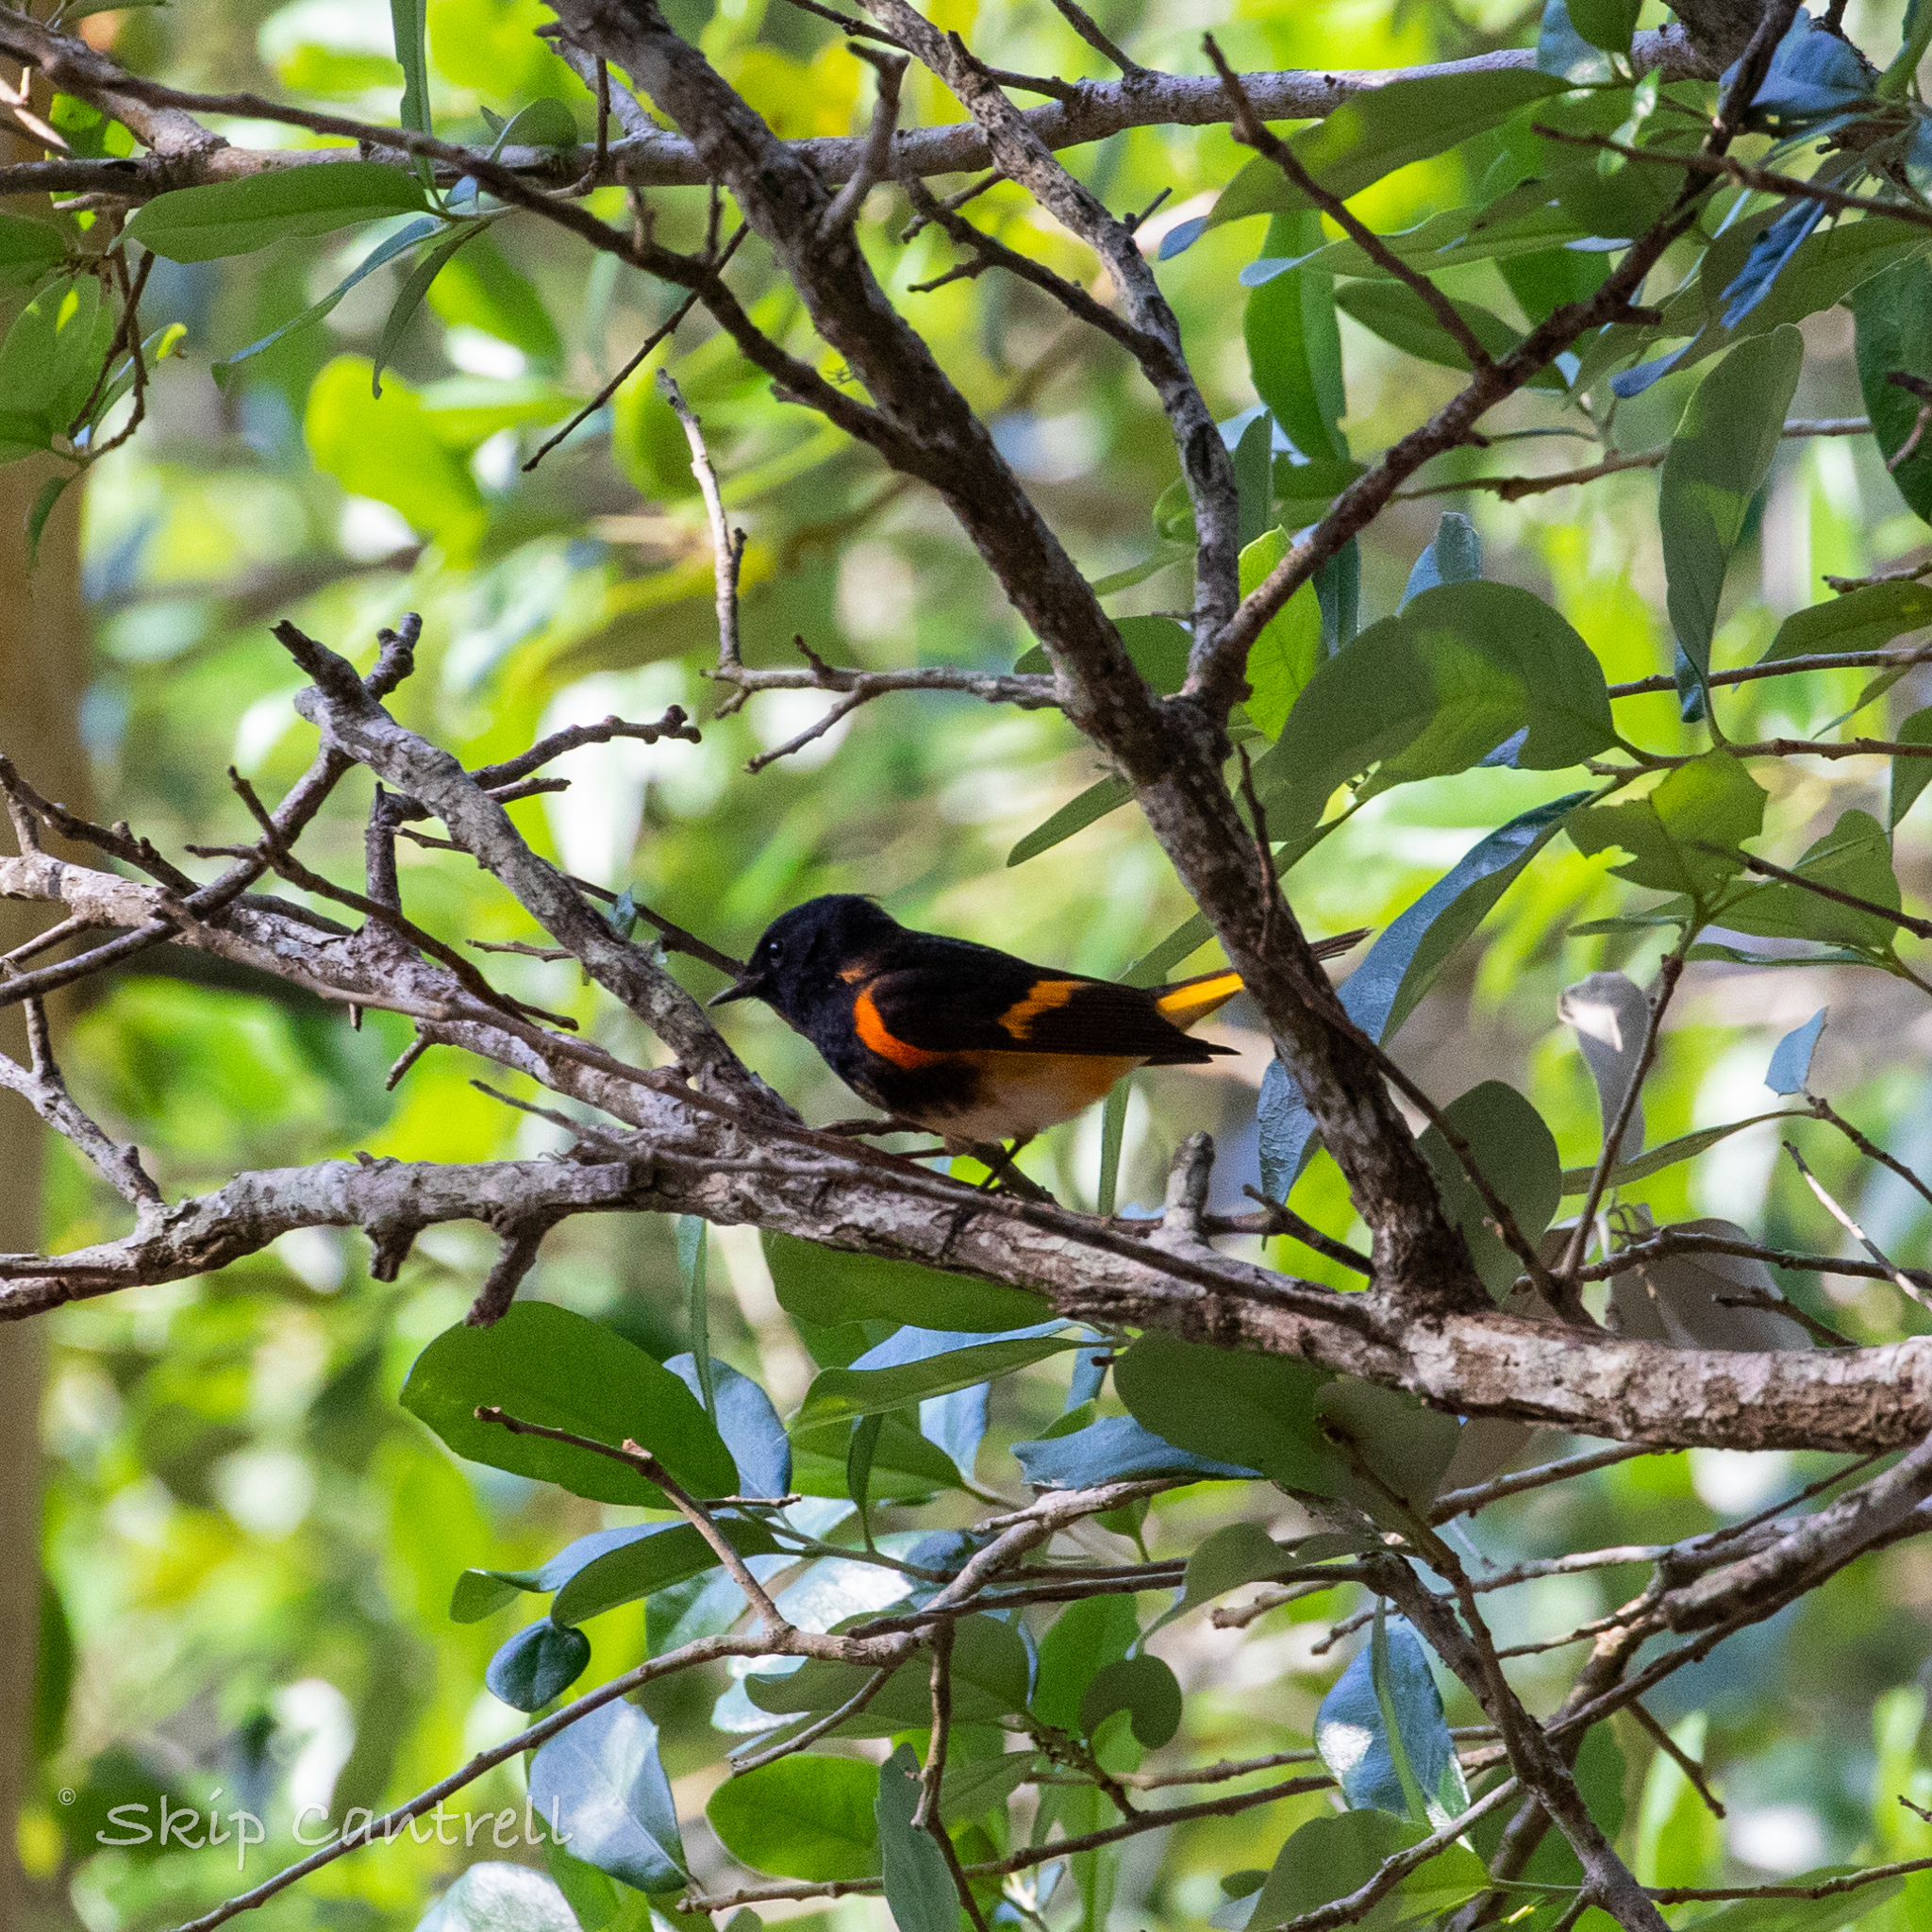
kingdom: Animalia
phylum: Chordata
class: Aves
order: Passeriformes
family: Parulidae
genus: Setophaga
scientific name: Setophaga ruticilla
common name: American redstart
